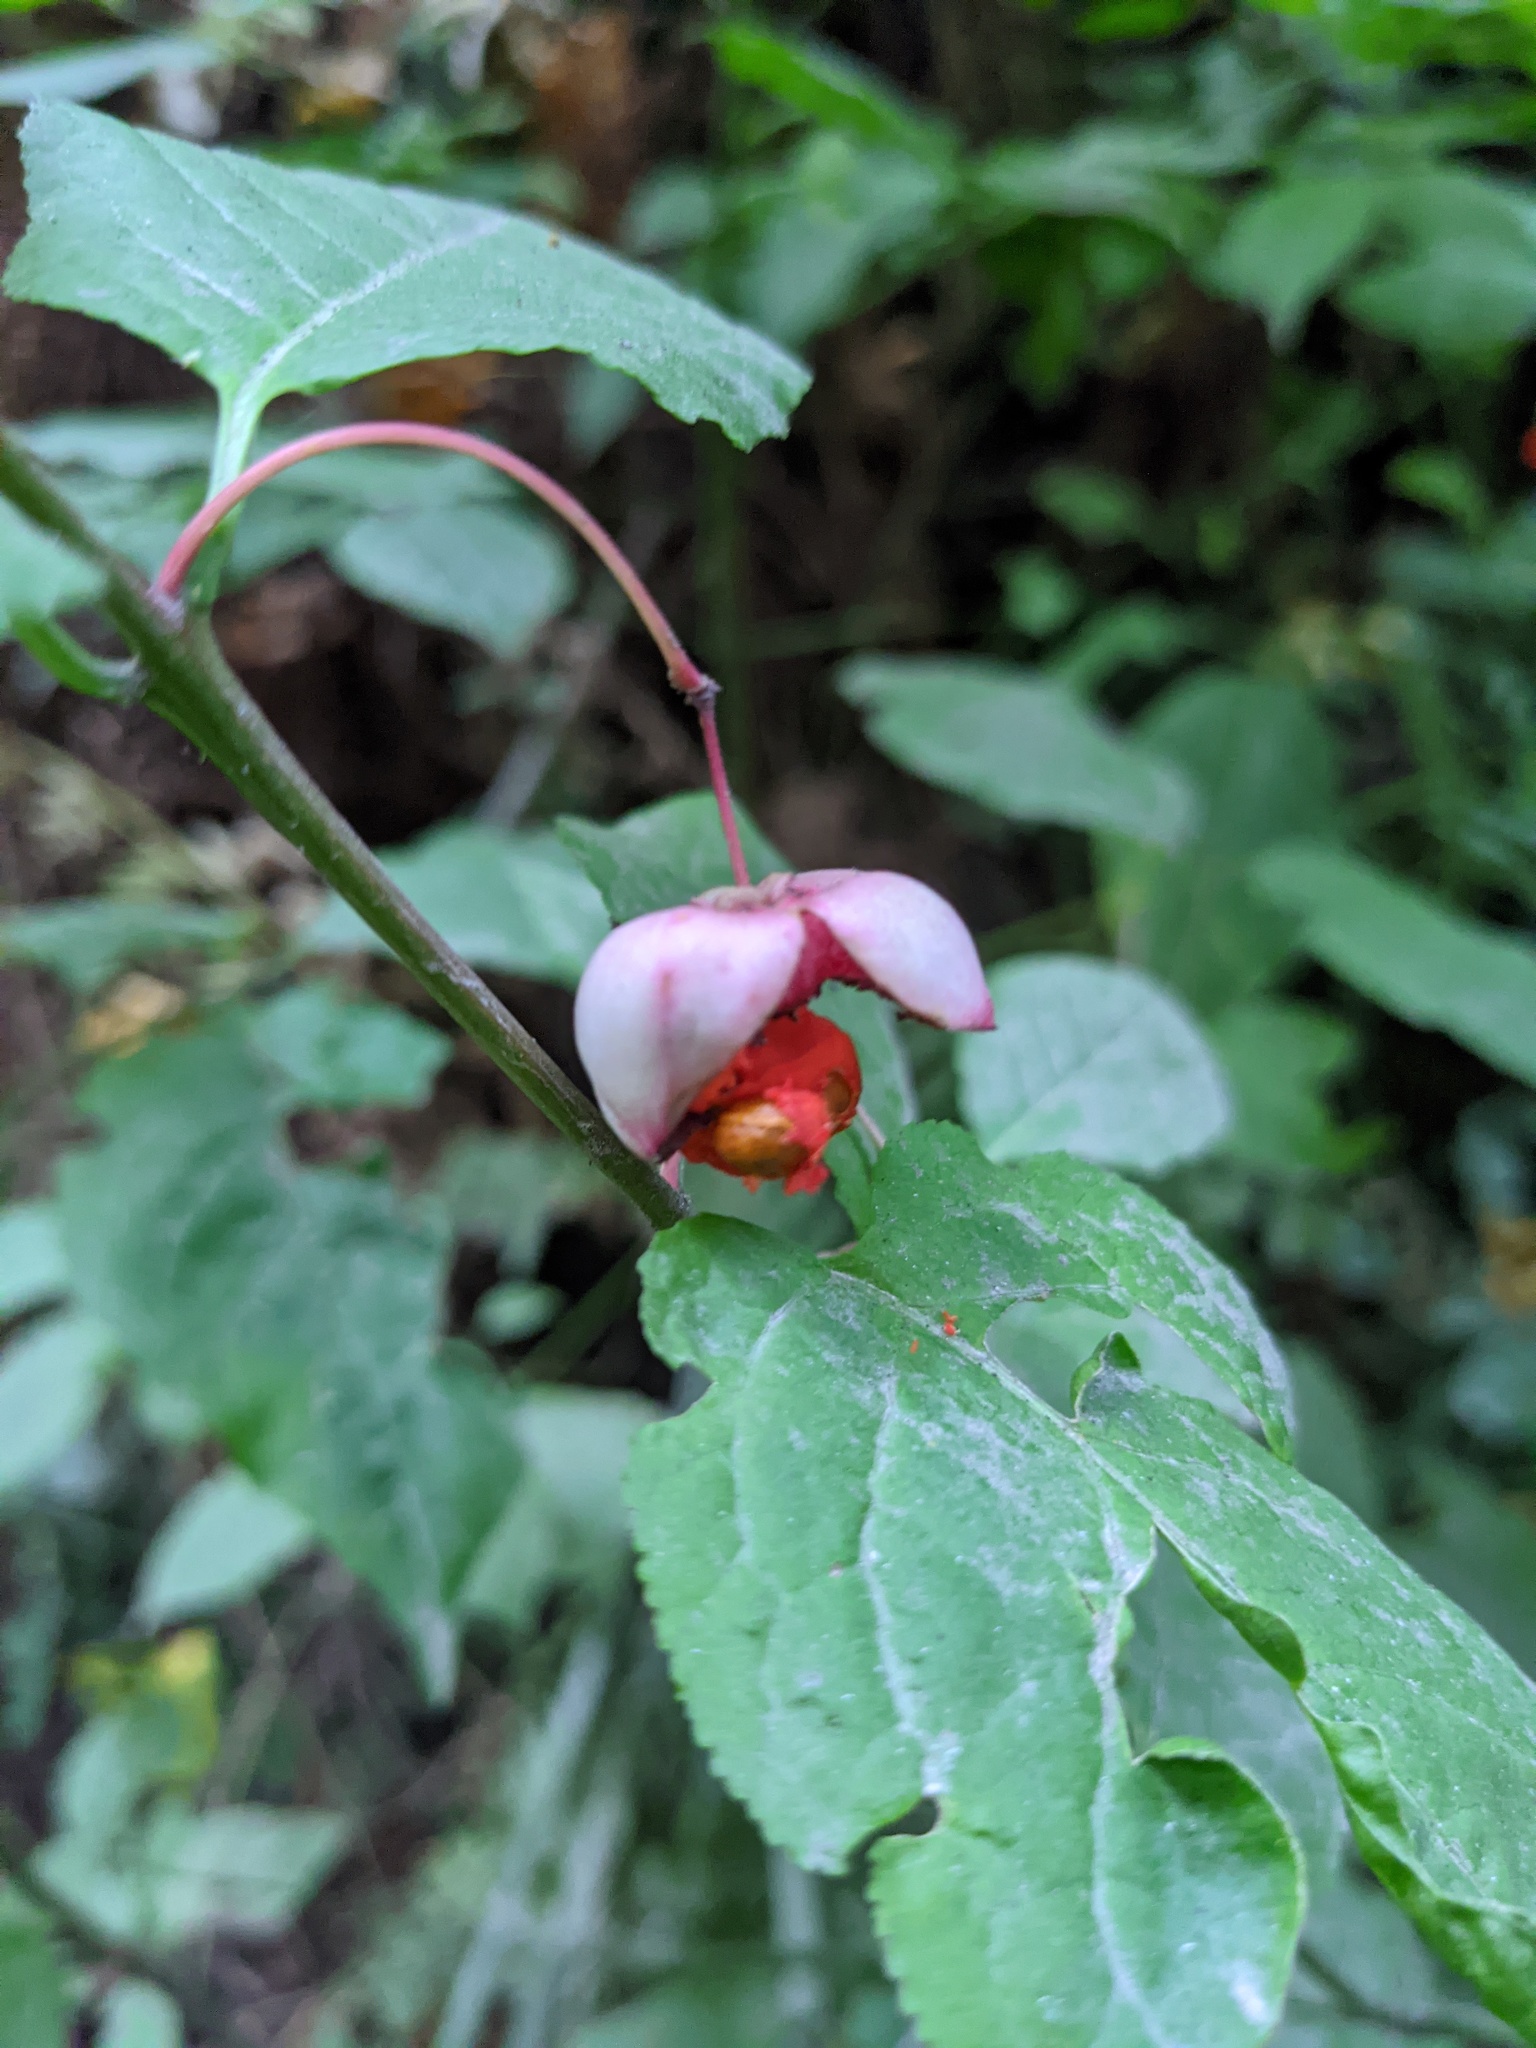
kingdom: Plantae
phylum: Tracheophyta
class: Magnoliopsida
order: Celastrales
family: Celastraceae
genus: Euonymus
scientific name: Euonymus occidentalis
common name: Western burningbush
